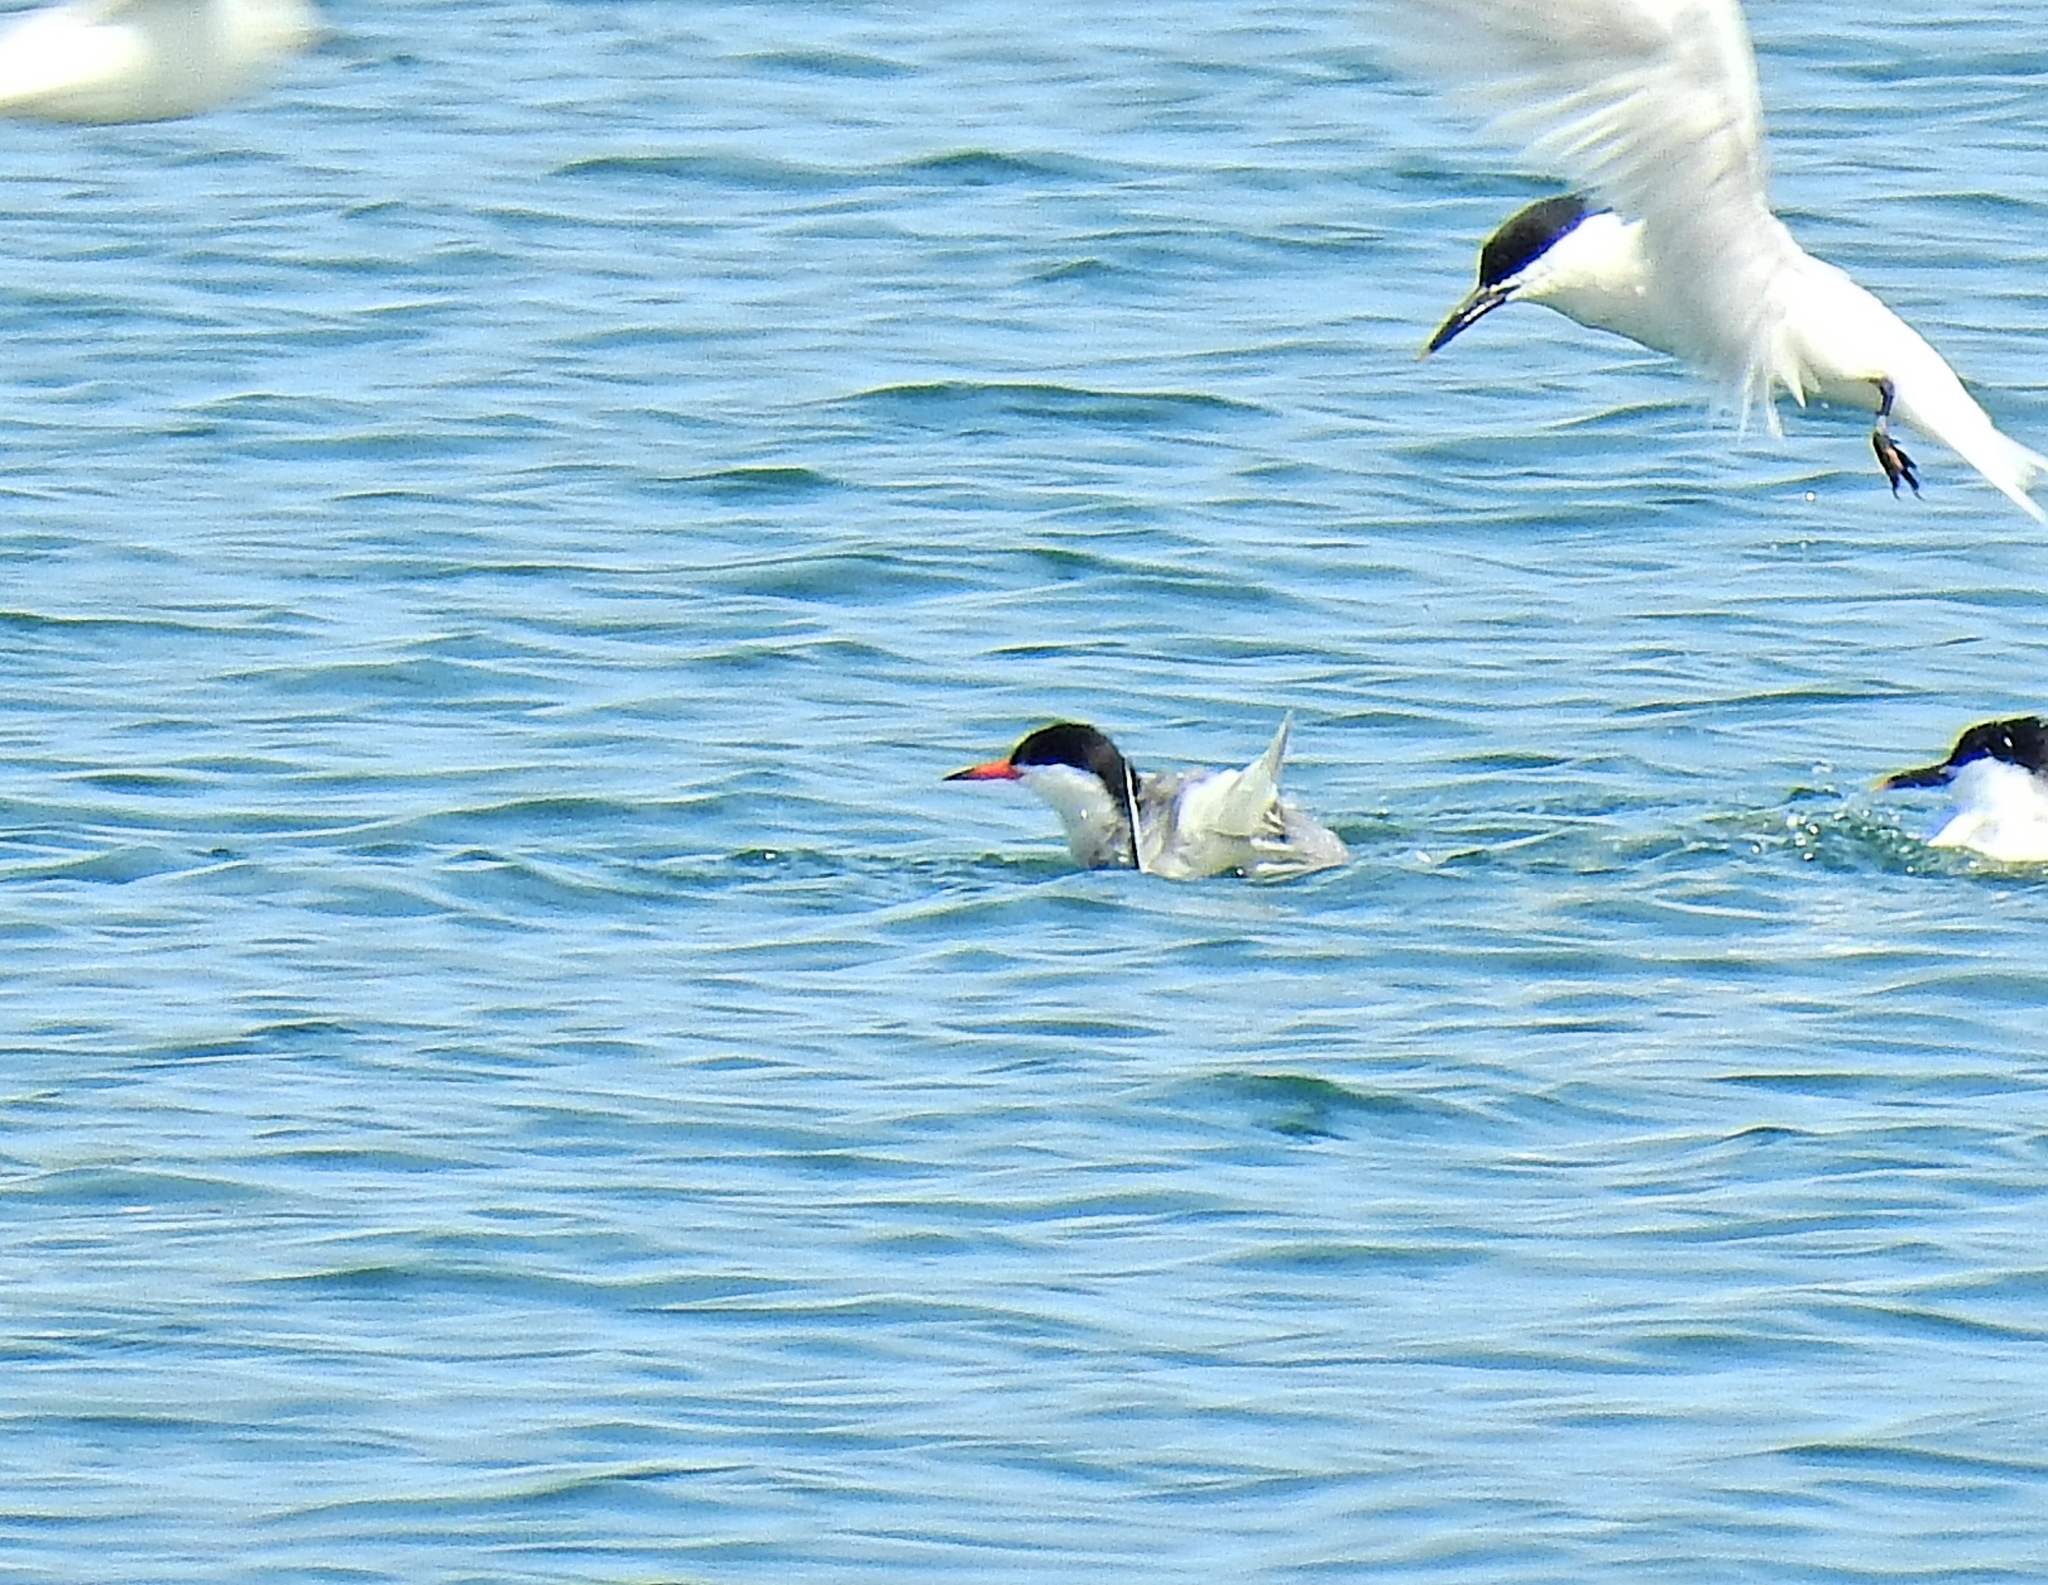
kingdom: Animalia
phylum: Chordata
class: Aves
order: Charadriiformes
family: Laridae
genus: Sterna
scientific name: Sterna hirundo
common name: Common tern
